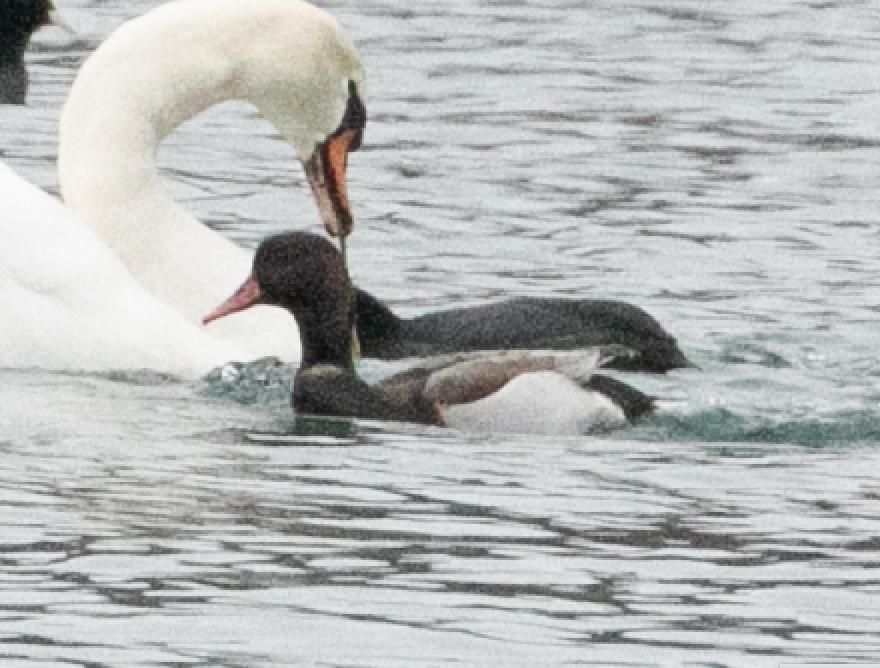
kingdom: Animalia
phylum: Chordata
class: Aves
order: Anseriformes
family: Anatidae
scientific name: Anatidae
